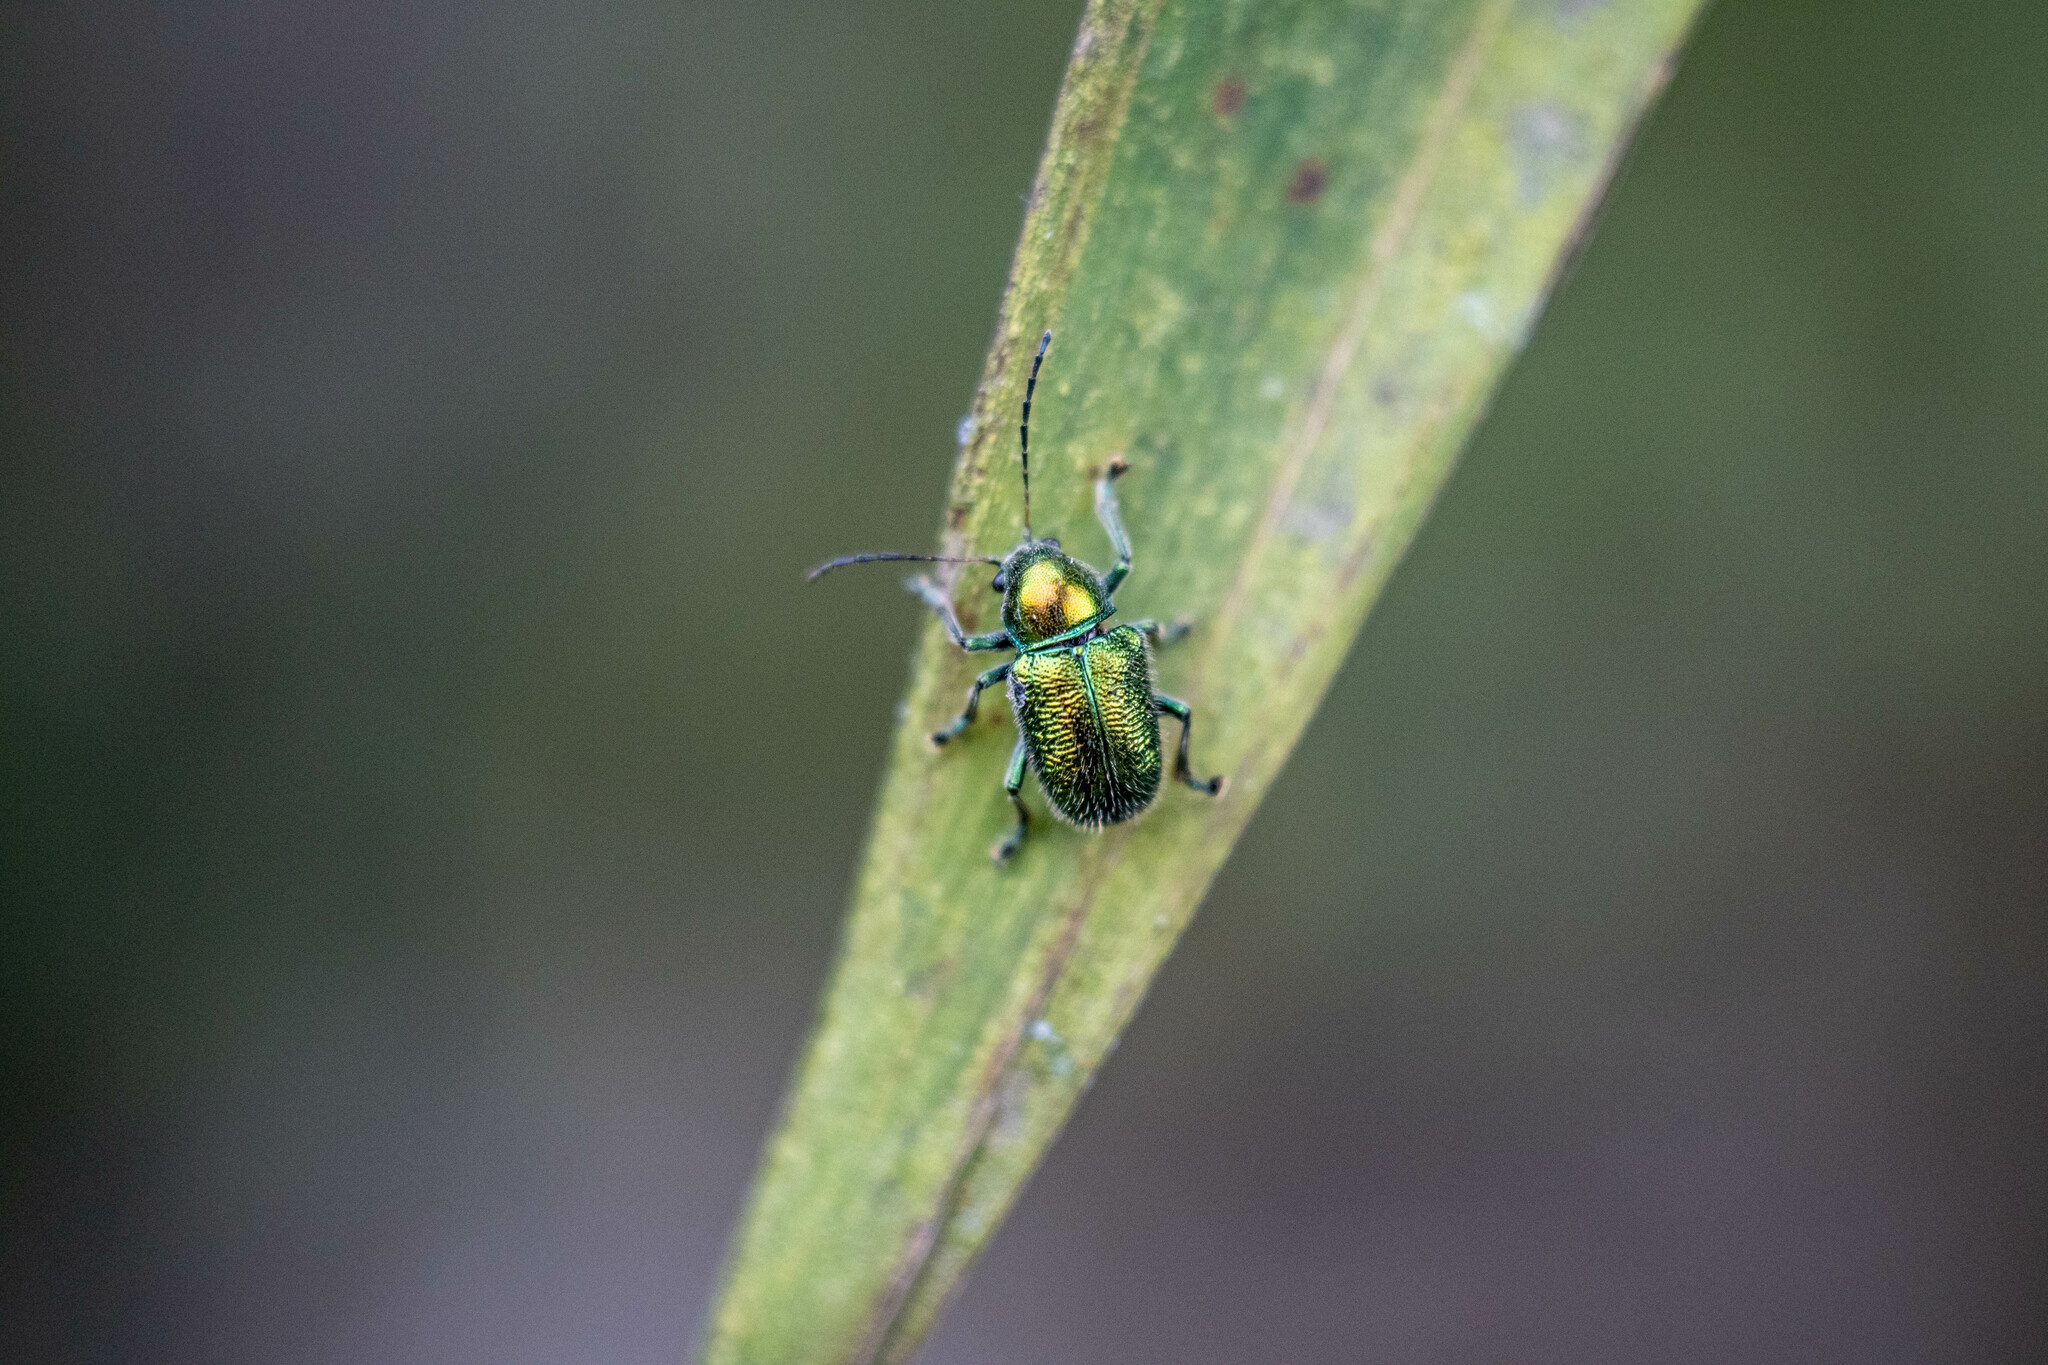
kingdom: Animalia
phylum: Arthropoda
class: Insecta
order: Coleoptera
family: Chrysomelidae
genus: Abirus
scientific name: Abirus fortuneii
